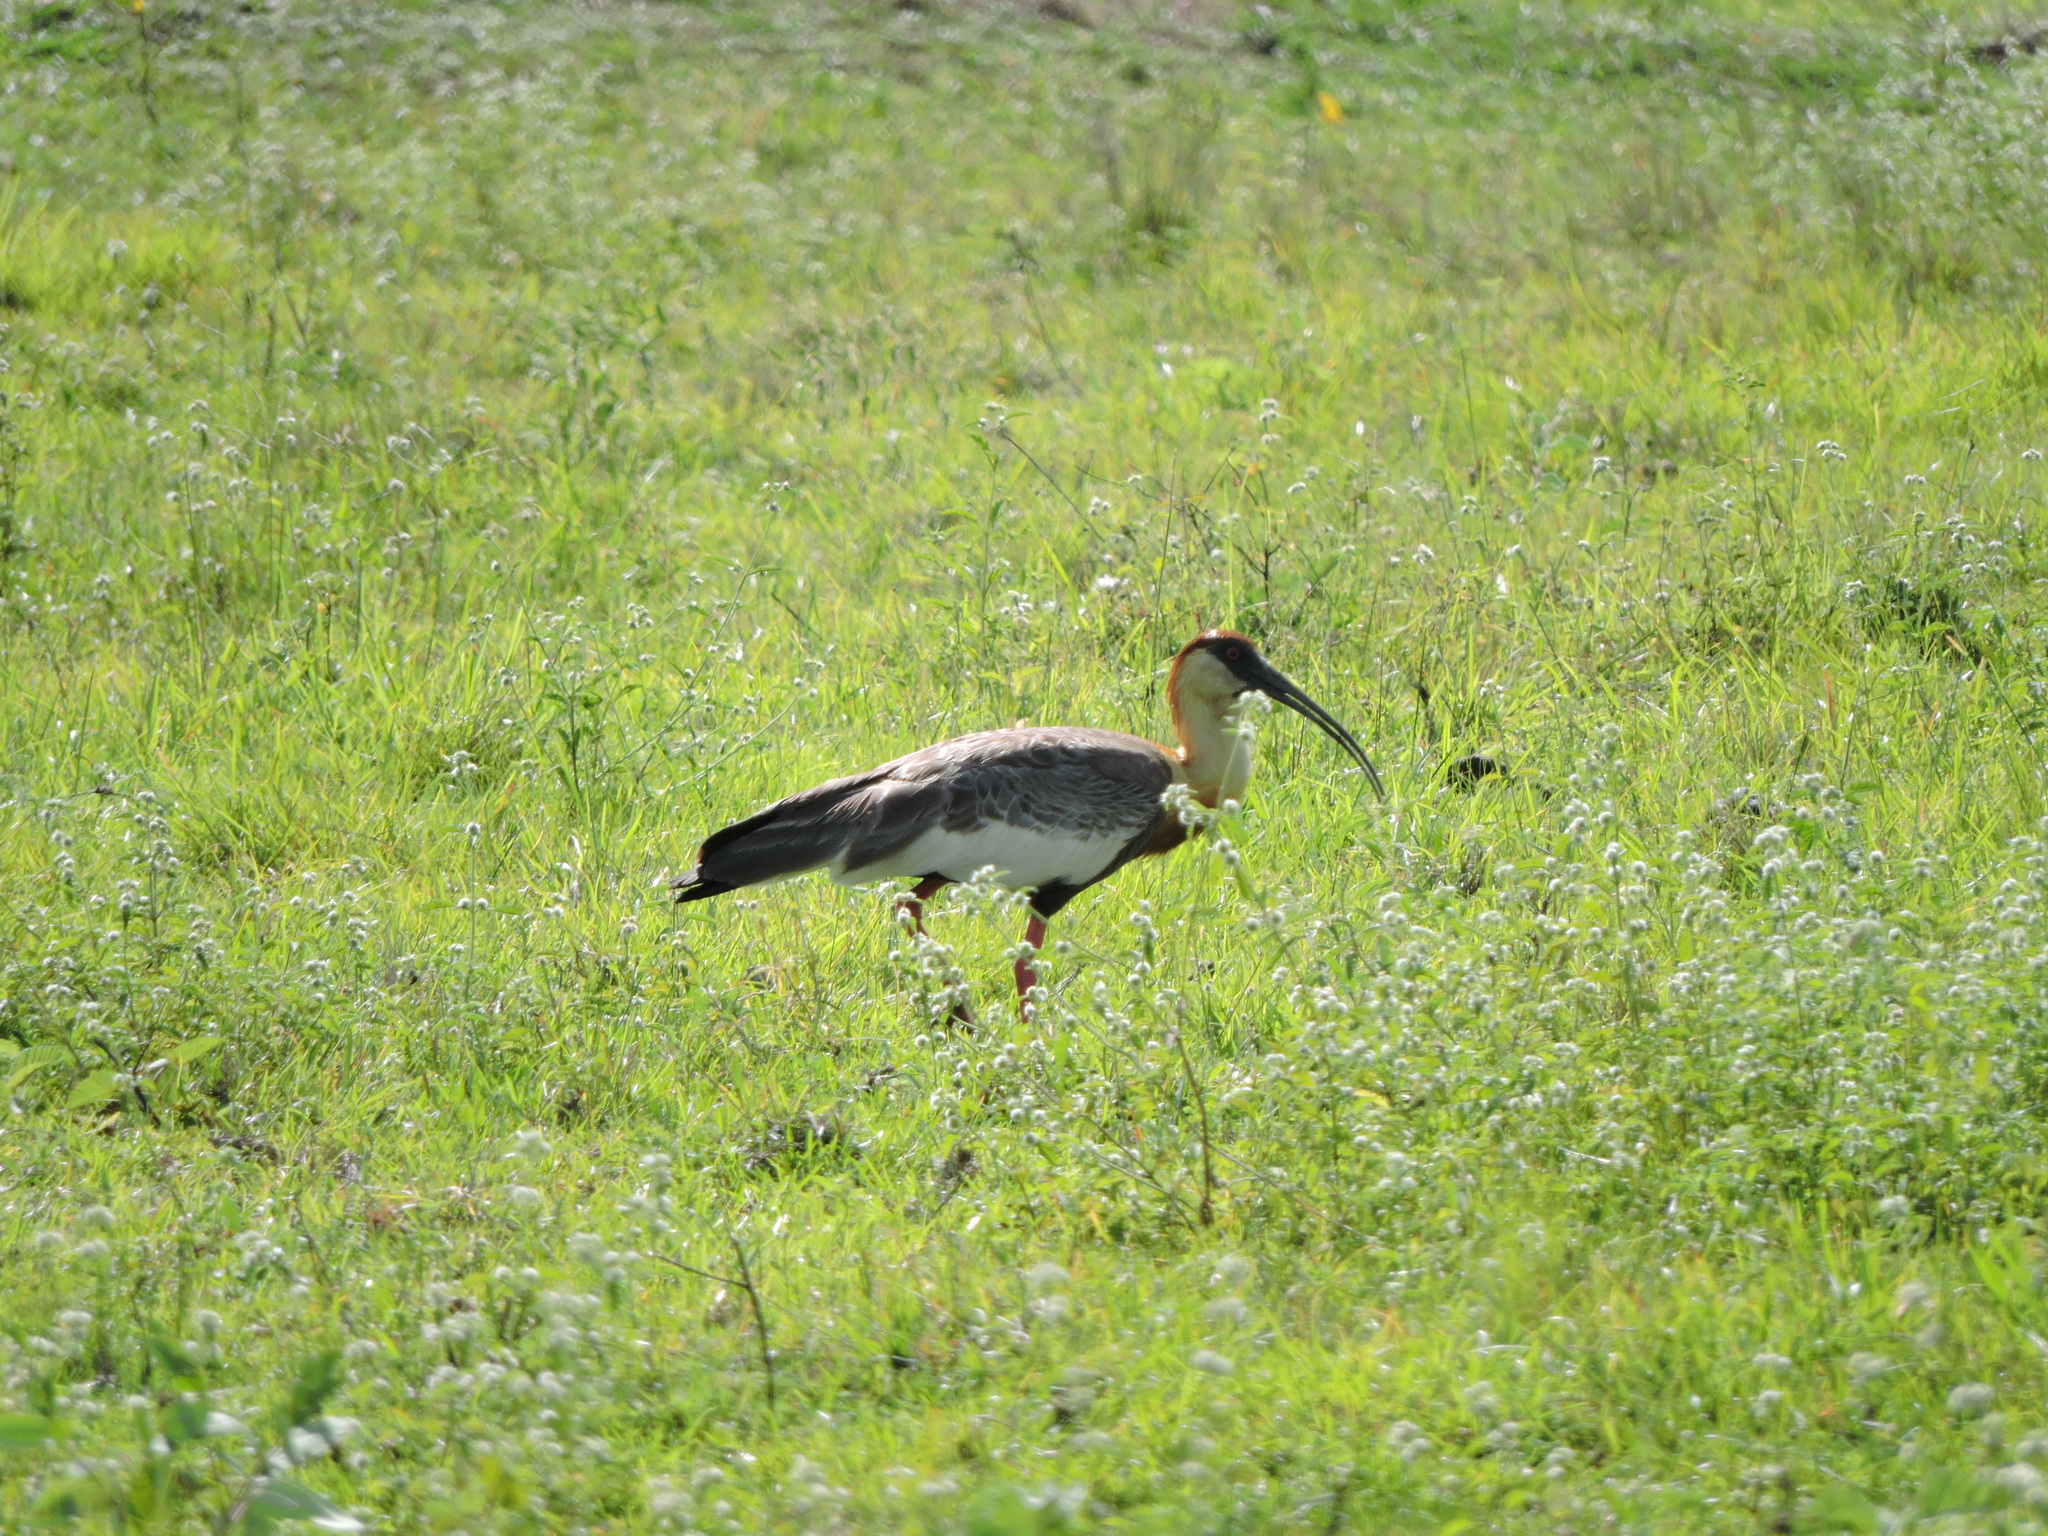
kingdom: Animalia
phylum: Chordata
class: Aves
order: Pelecaniformes
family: Threskiornithidae
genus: Theristicus
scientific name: Theristicus caudatus
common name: Buff-necked ibis
